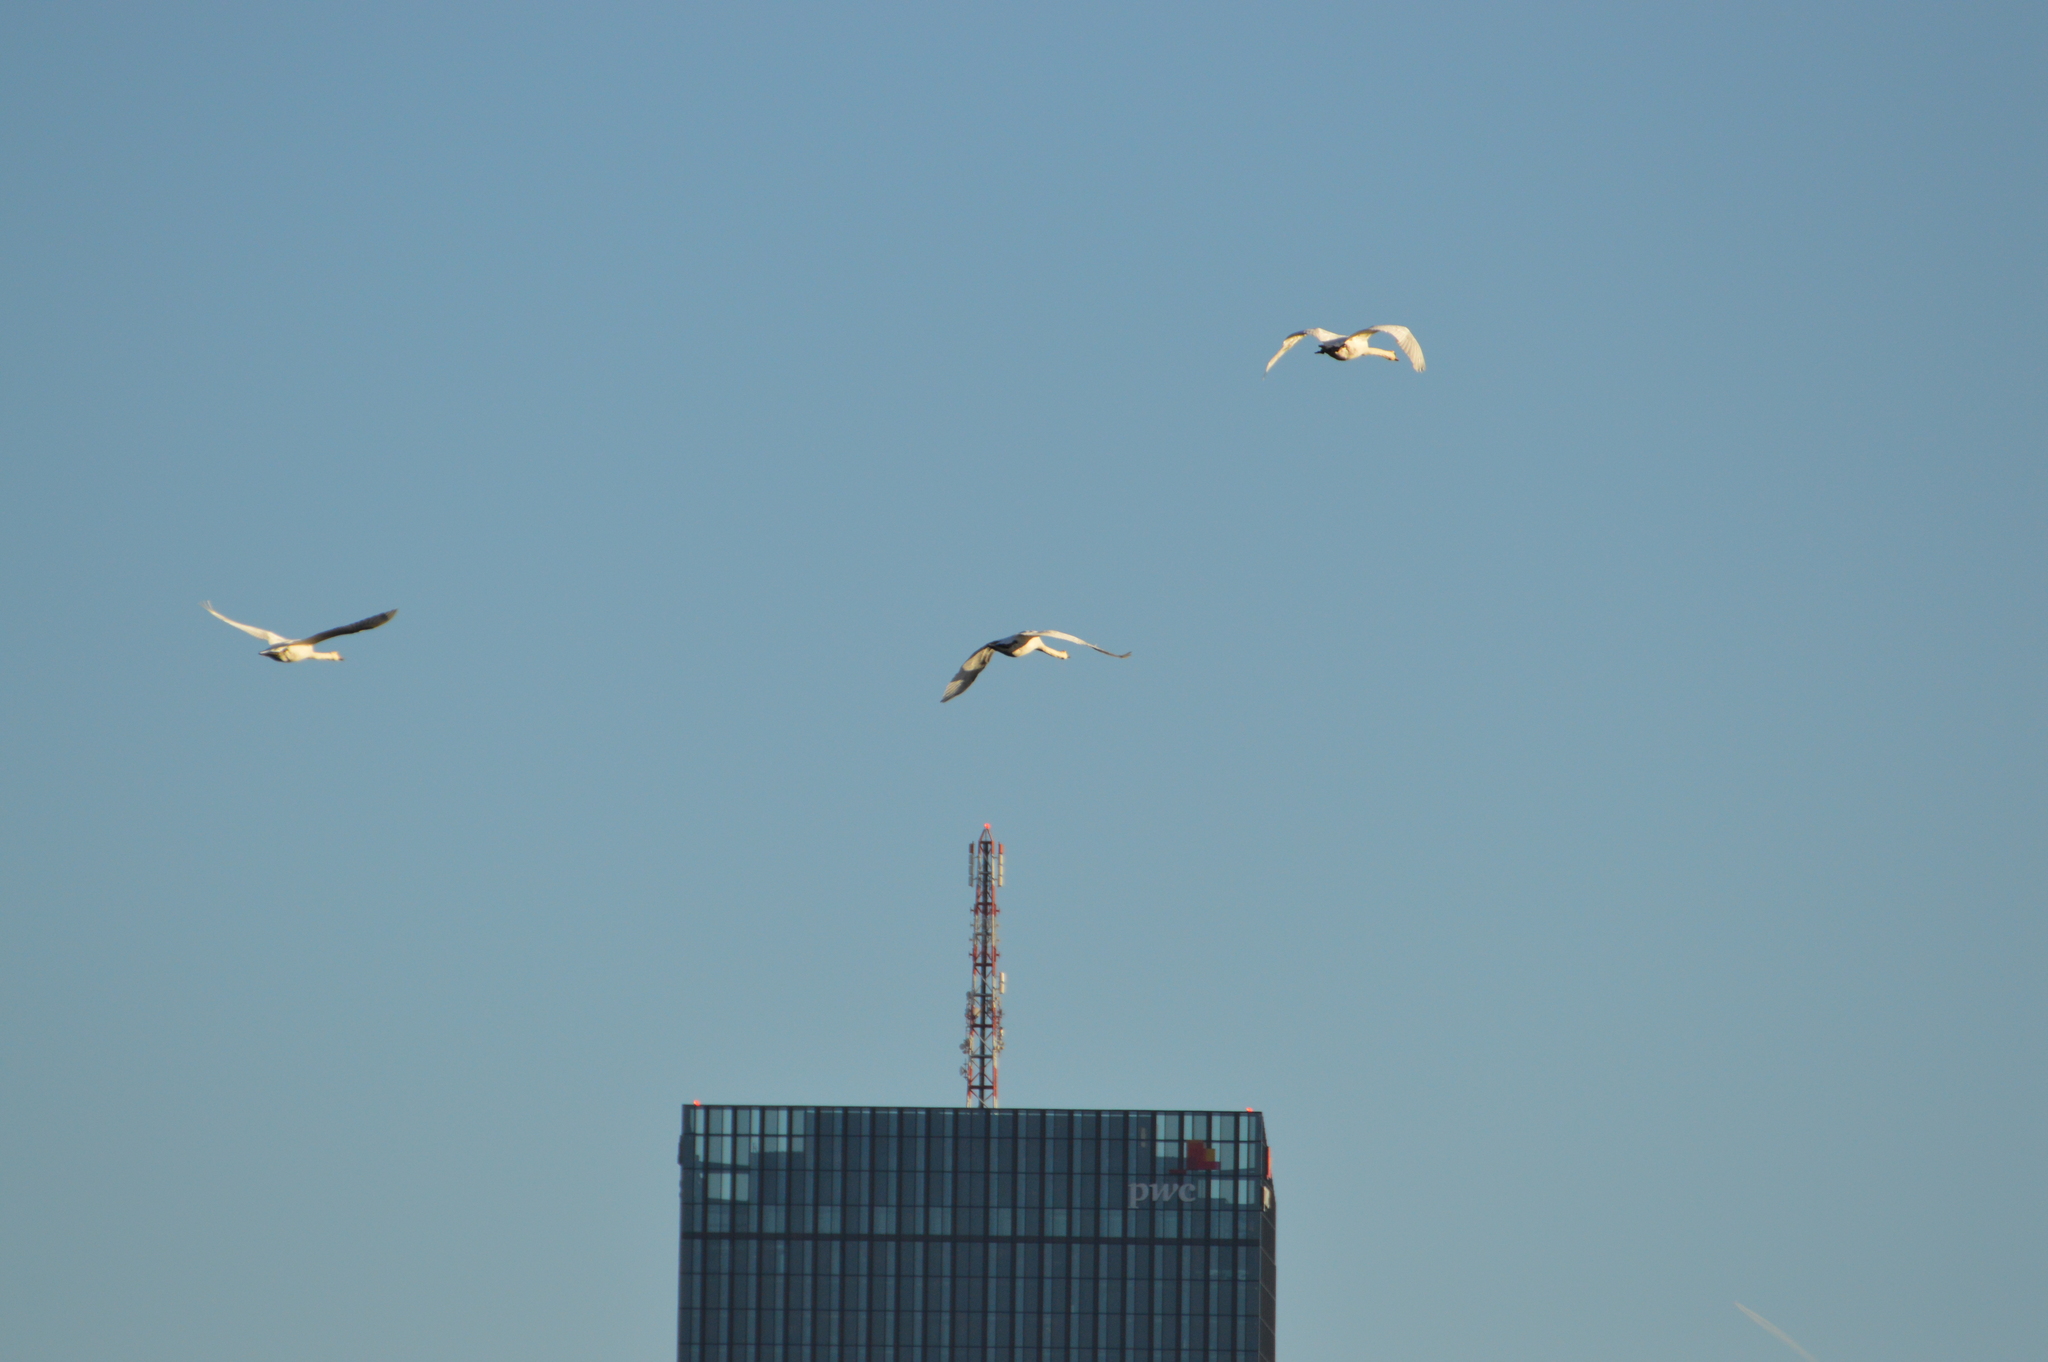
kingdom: Animalia
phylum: Chordata
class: Aves
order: Anseriformes
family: Anatidae
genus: Cygnus
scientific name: Cygnus olor
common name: Mute swan
